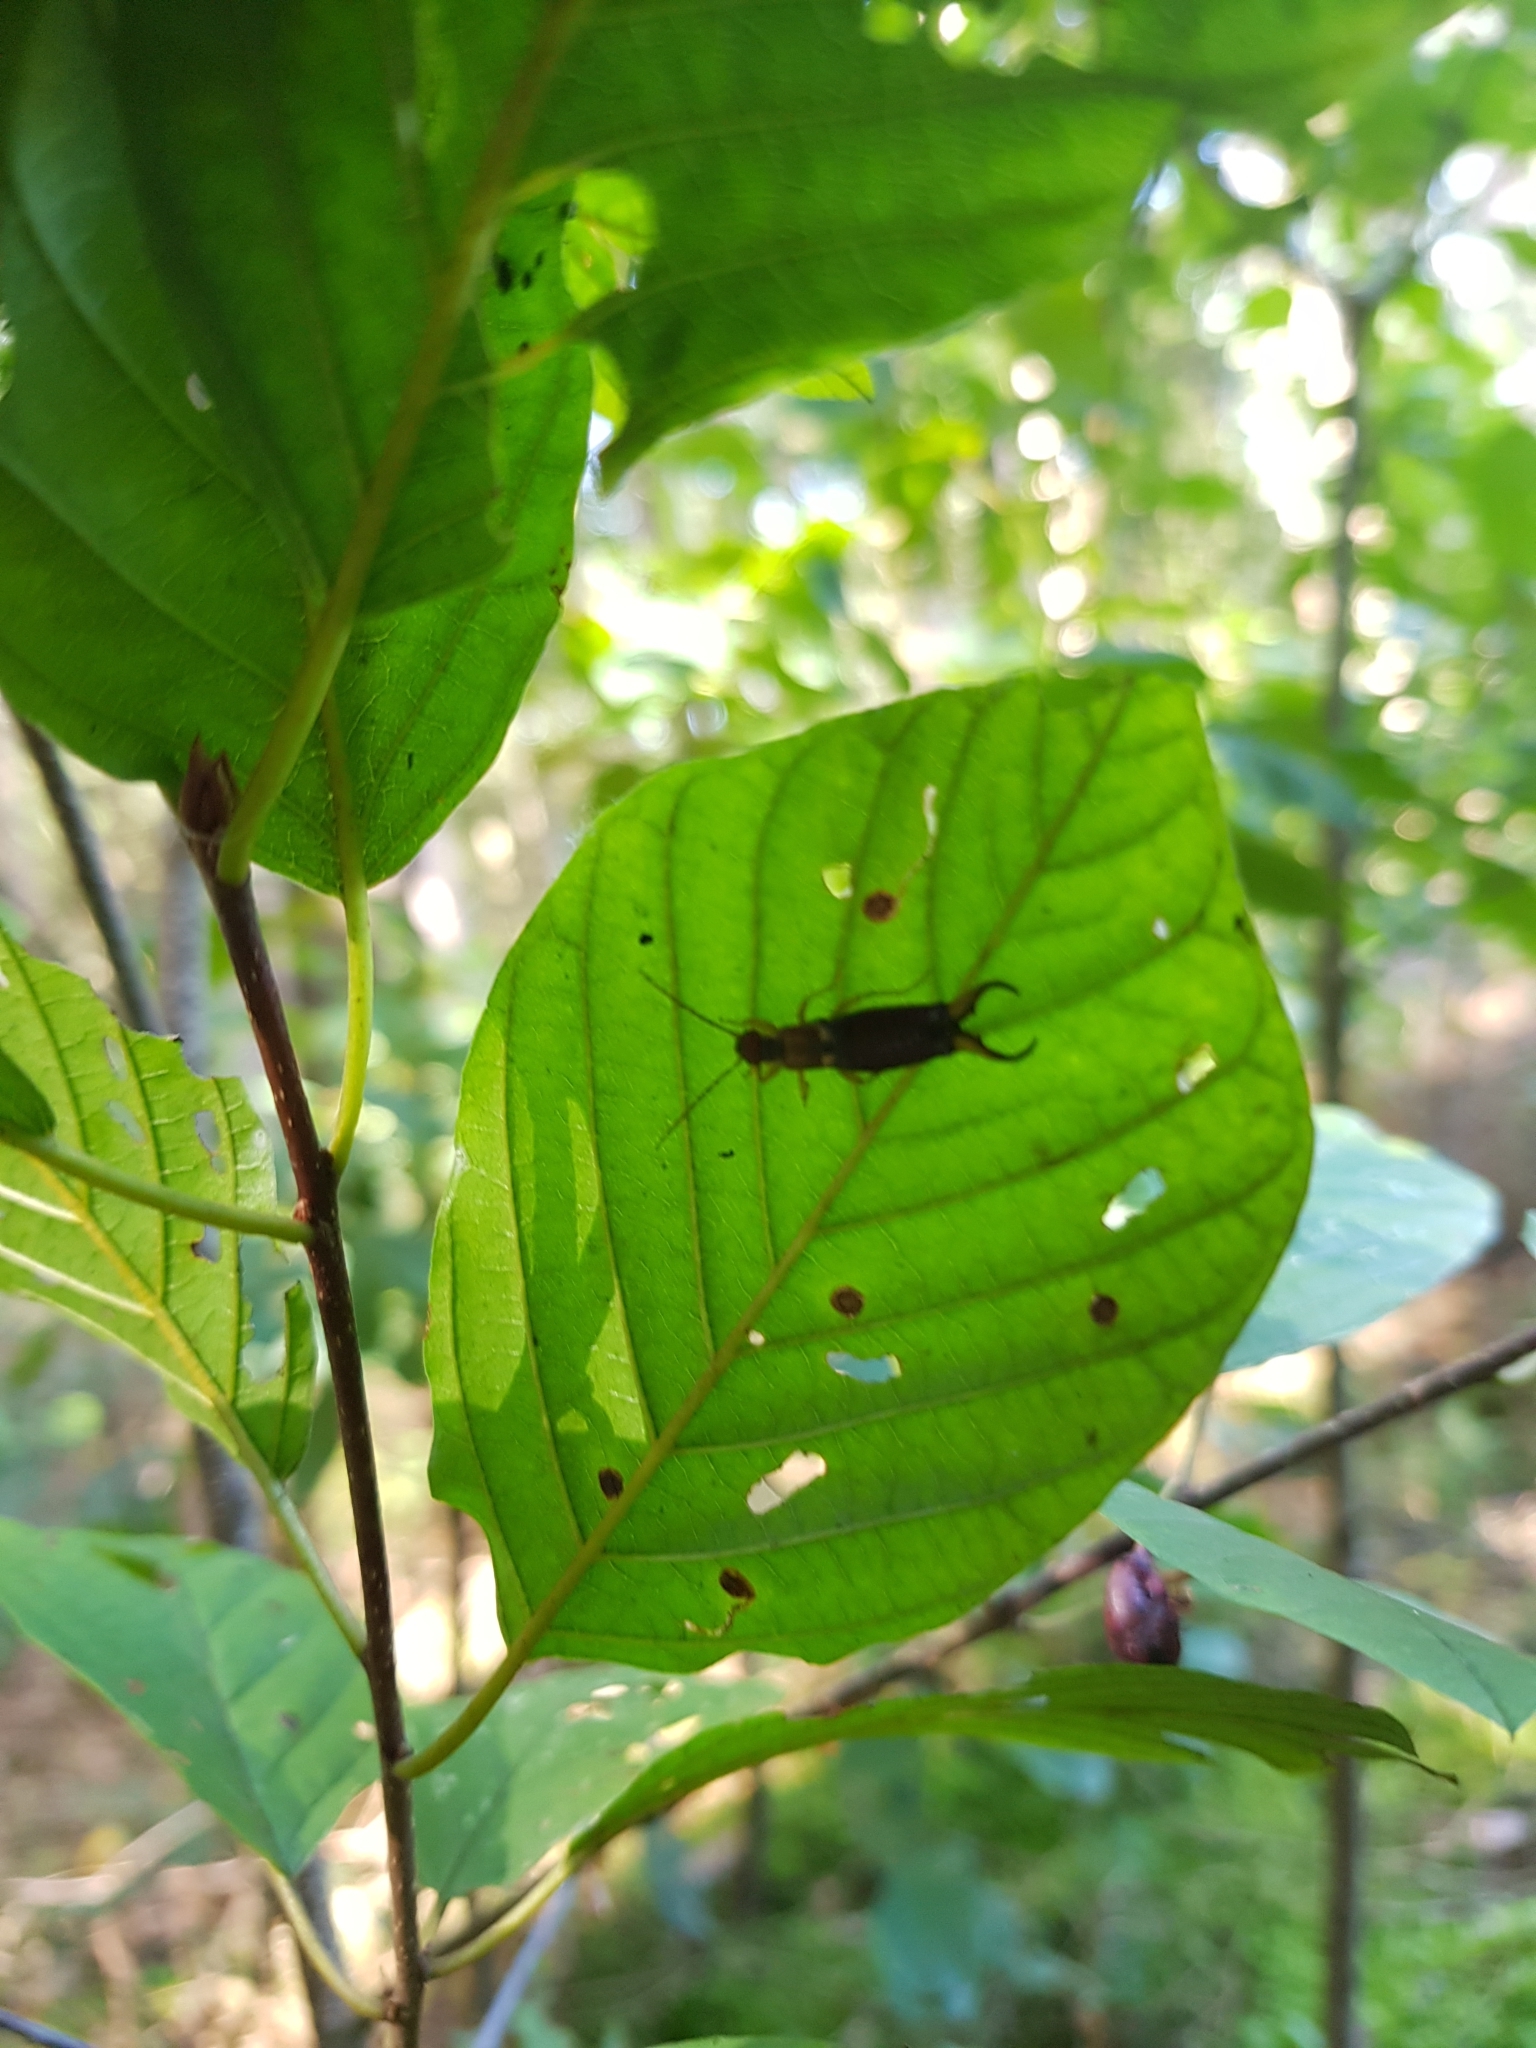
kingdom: Animalia
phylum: Arthropoda
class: Insecta
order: Dermaptera
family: Forficulidae
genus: Forficula
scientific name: Forficula
